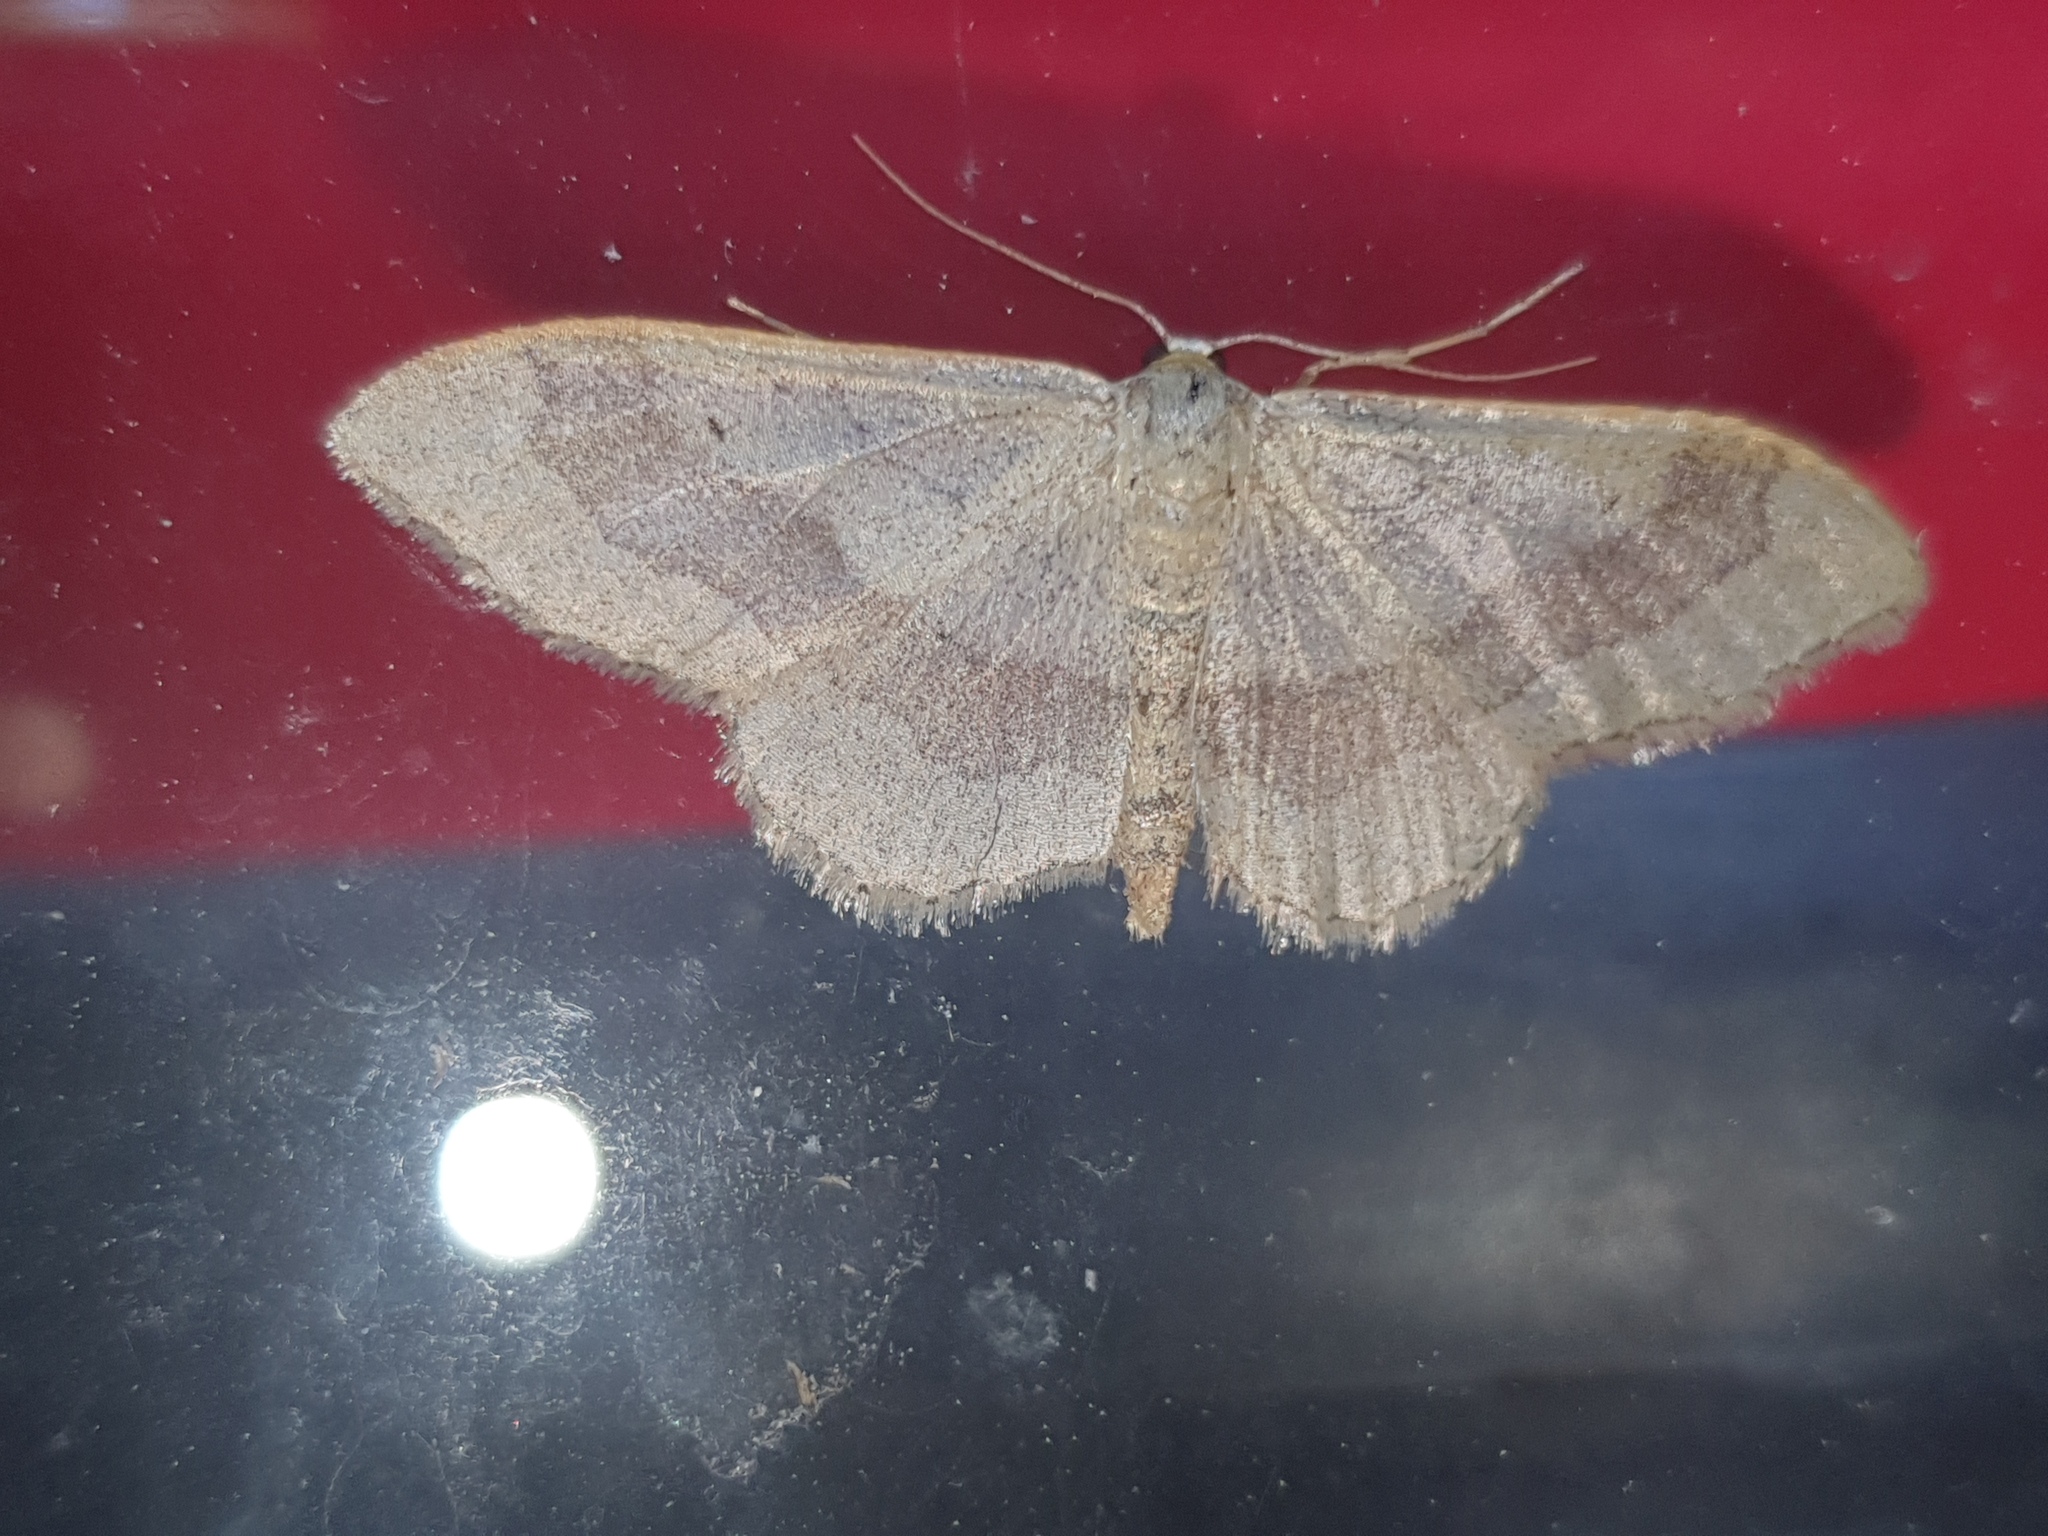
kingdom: Animalia
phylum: Arthropoda
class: Insecta
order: Lepidoptera
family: Geometridae
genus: Idaea
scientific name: Idaea aversata
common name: Riband wave
